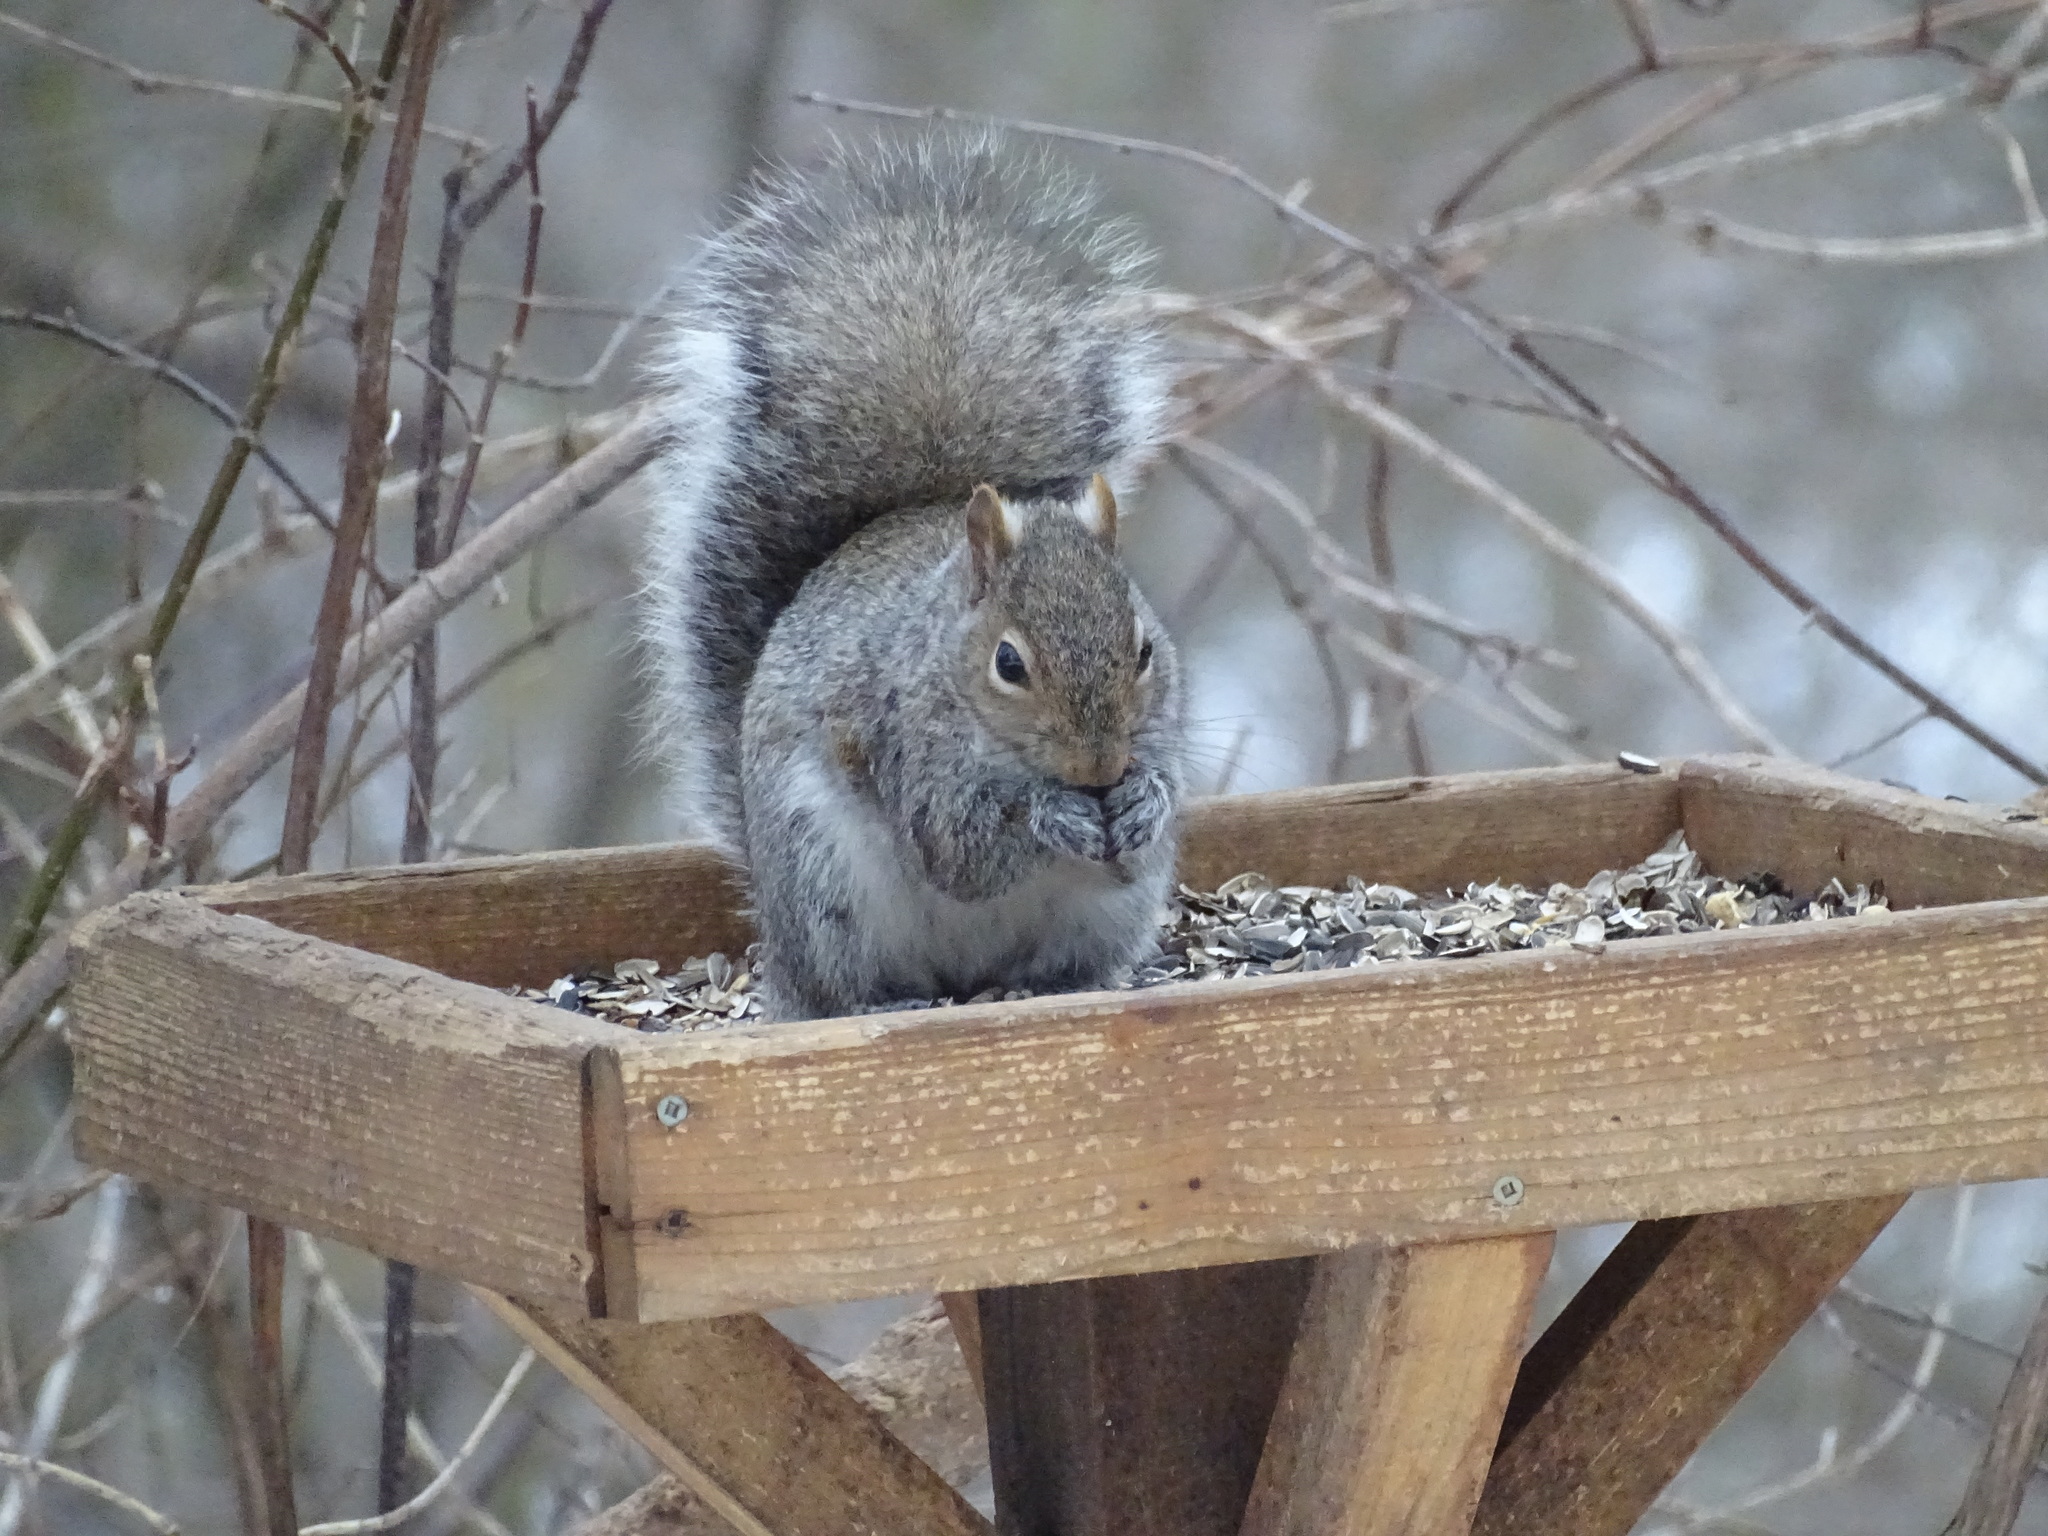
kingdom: Animalia
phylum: Chordata
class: Mammalia
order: Rodentia
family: Sciuridae
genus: Sciurus
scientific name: Sciurus carolinensis
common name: Eastern gray squirrel
